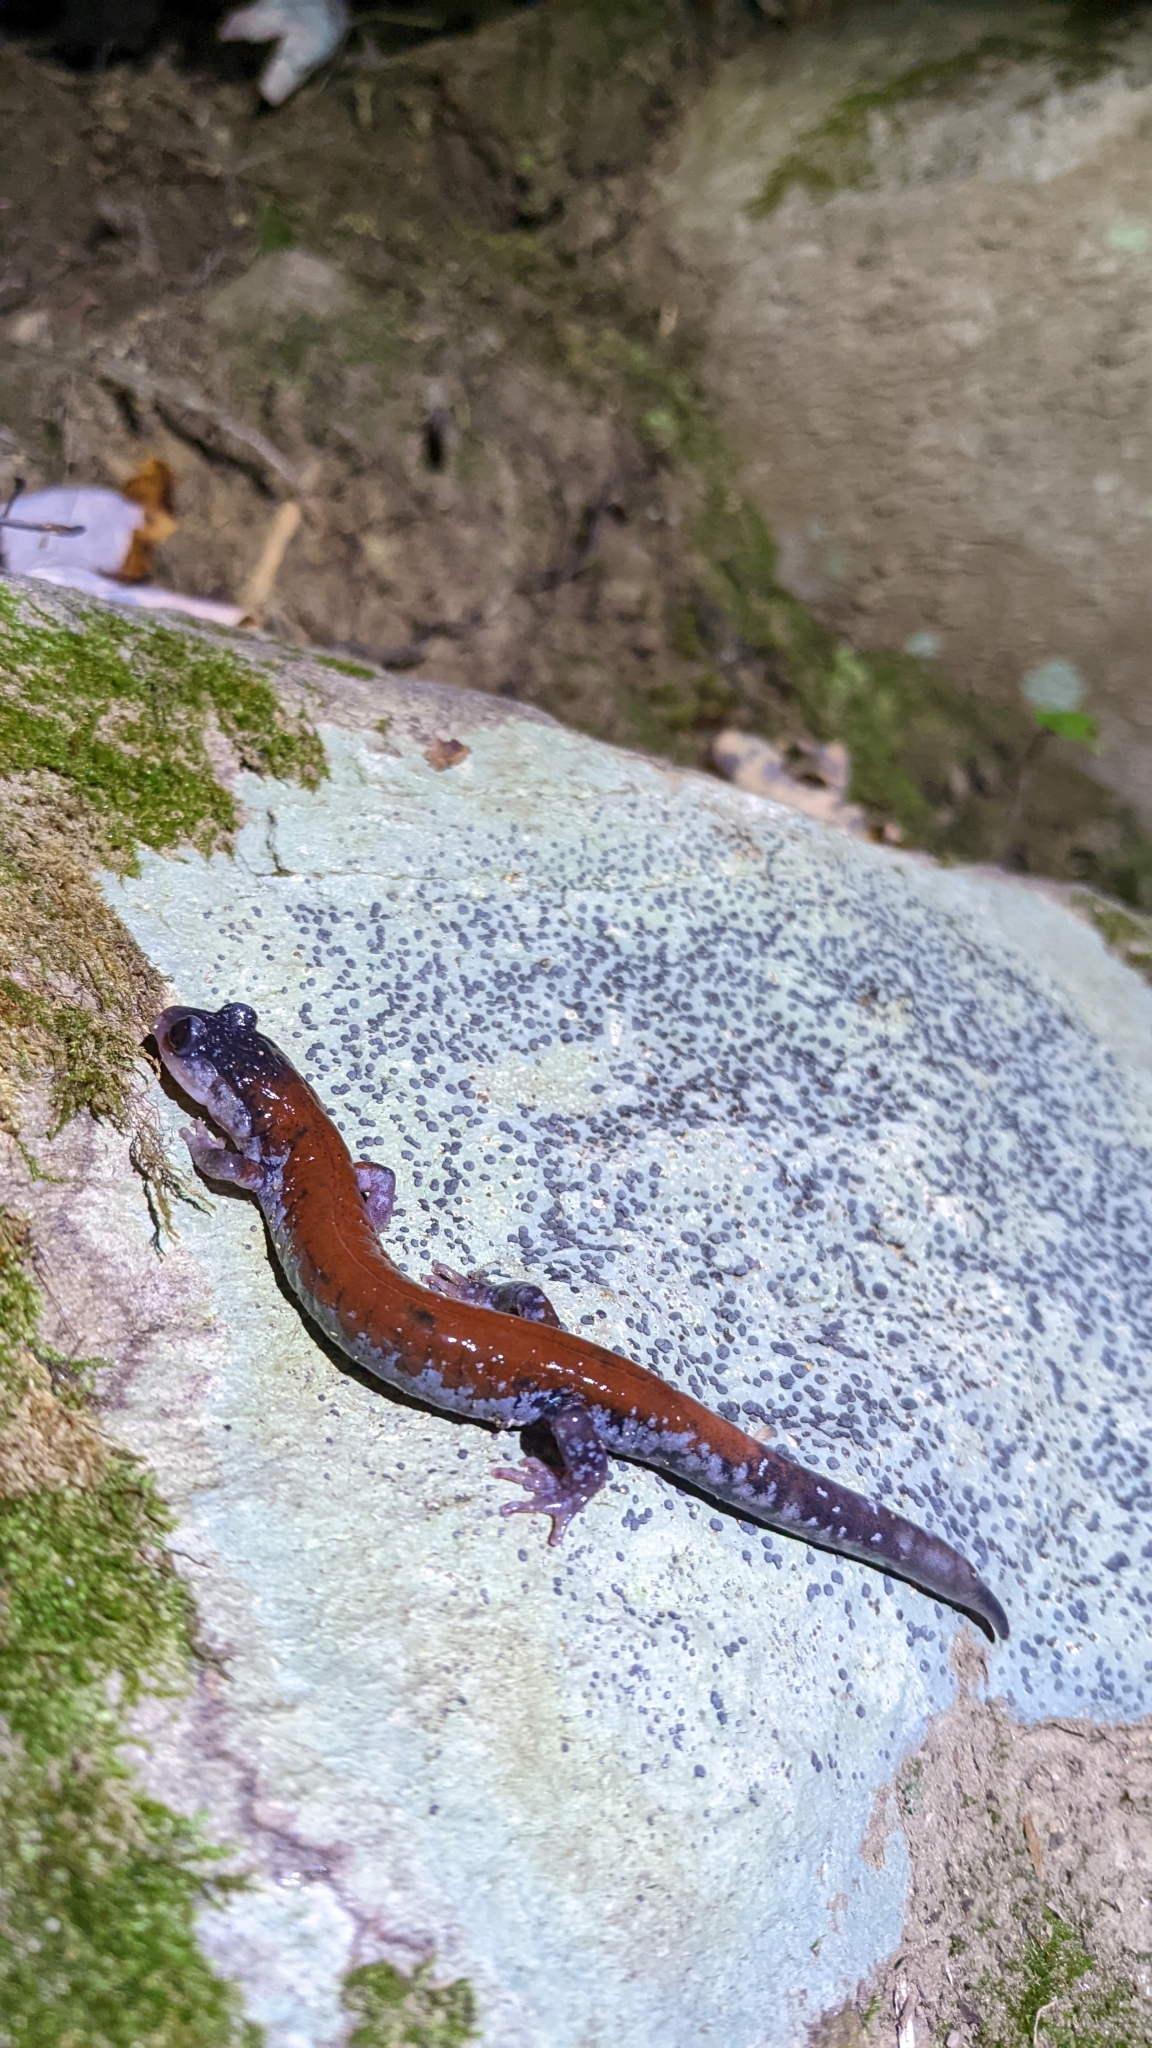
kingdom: Animalia
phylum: Chordata
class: Amphibia
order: Caudata
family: Plethodontidae
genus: Plethodon
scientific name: Plethodon yonahlossee
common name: Yonahlossee salamander
